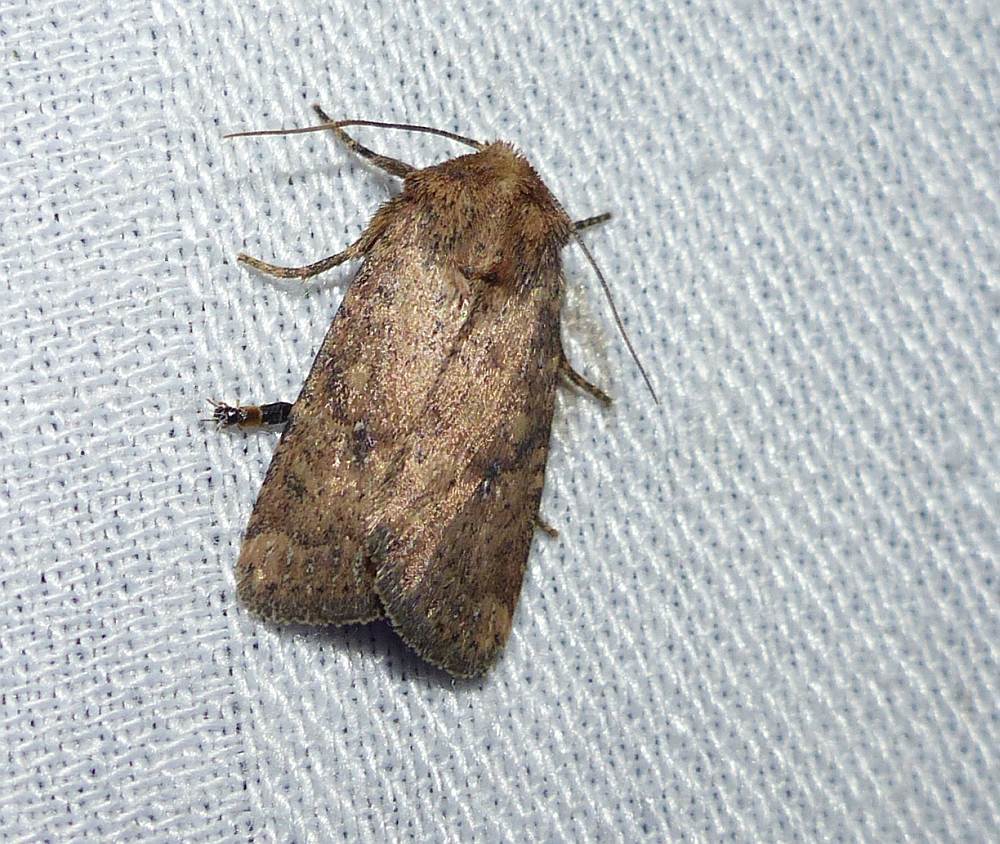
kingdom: Animalia
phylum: Arthropoda
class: Insecta
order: Lepidoptera
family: Noctuidae
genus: Homorthodes
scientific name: Homorthodes furfurata
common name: Northern scurfy quaker
